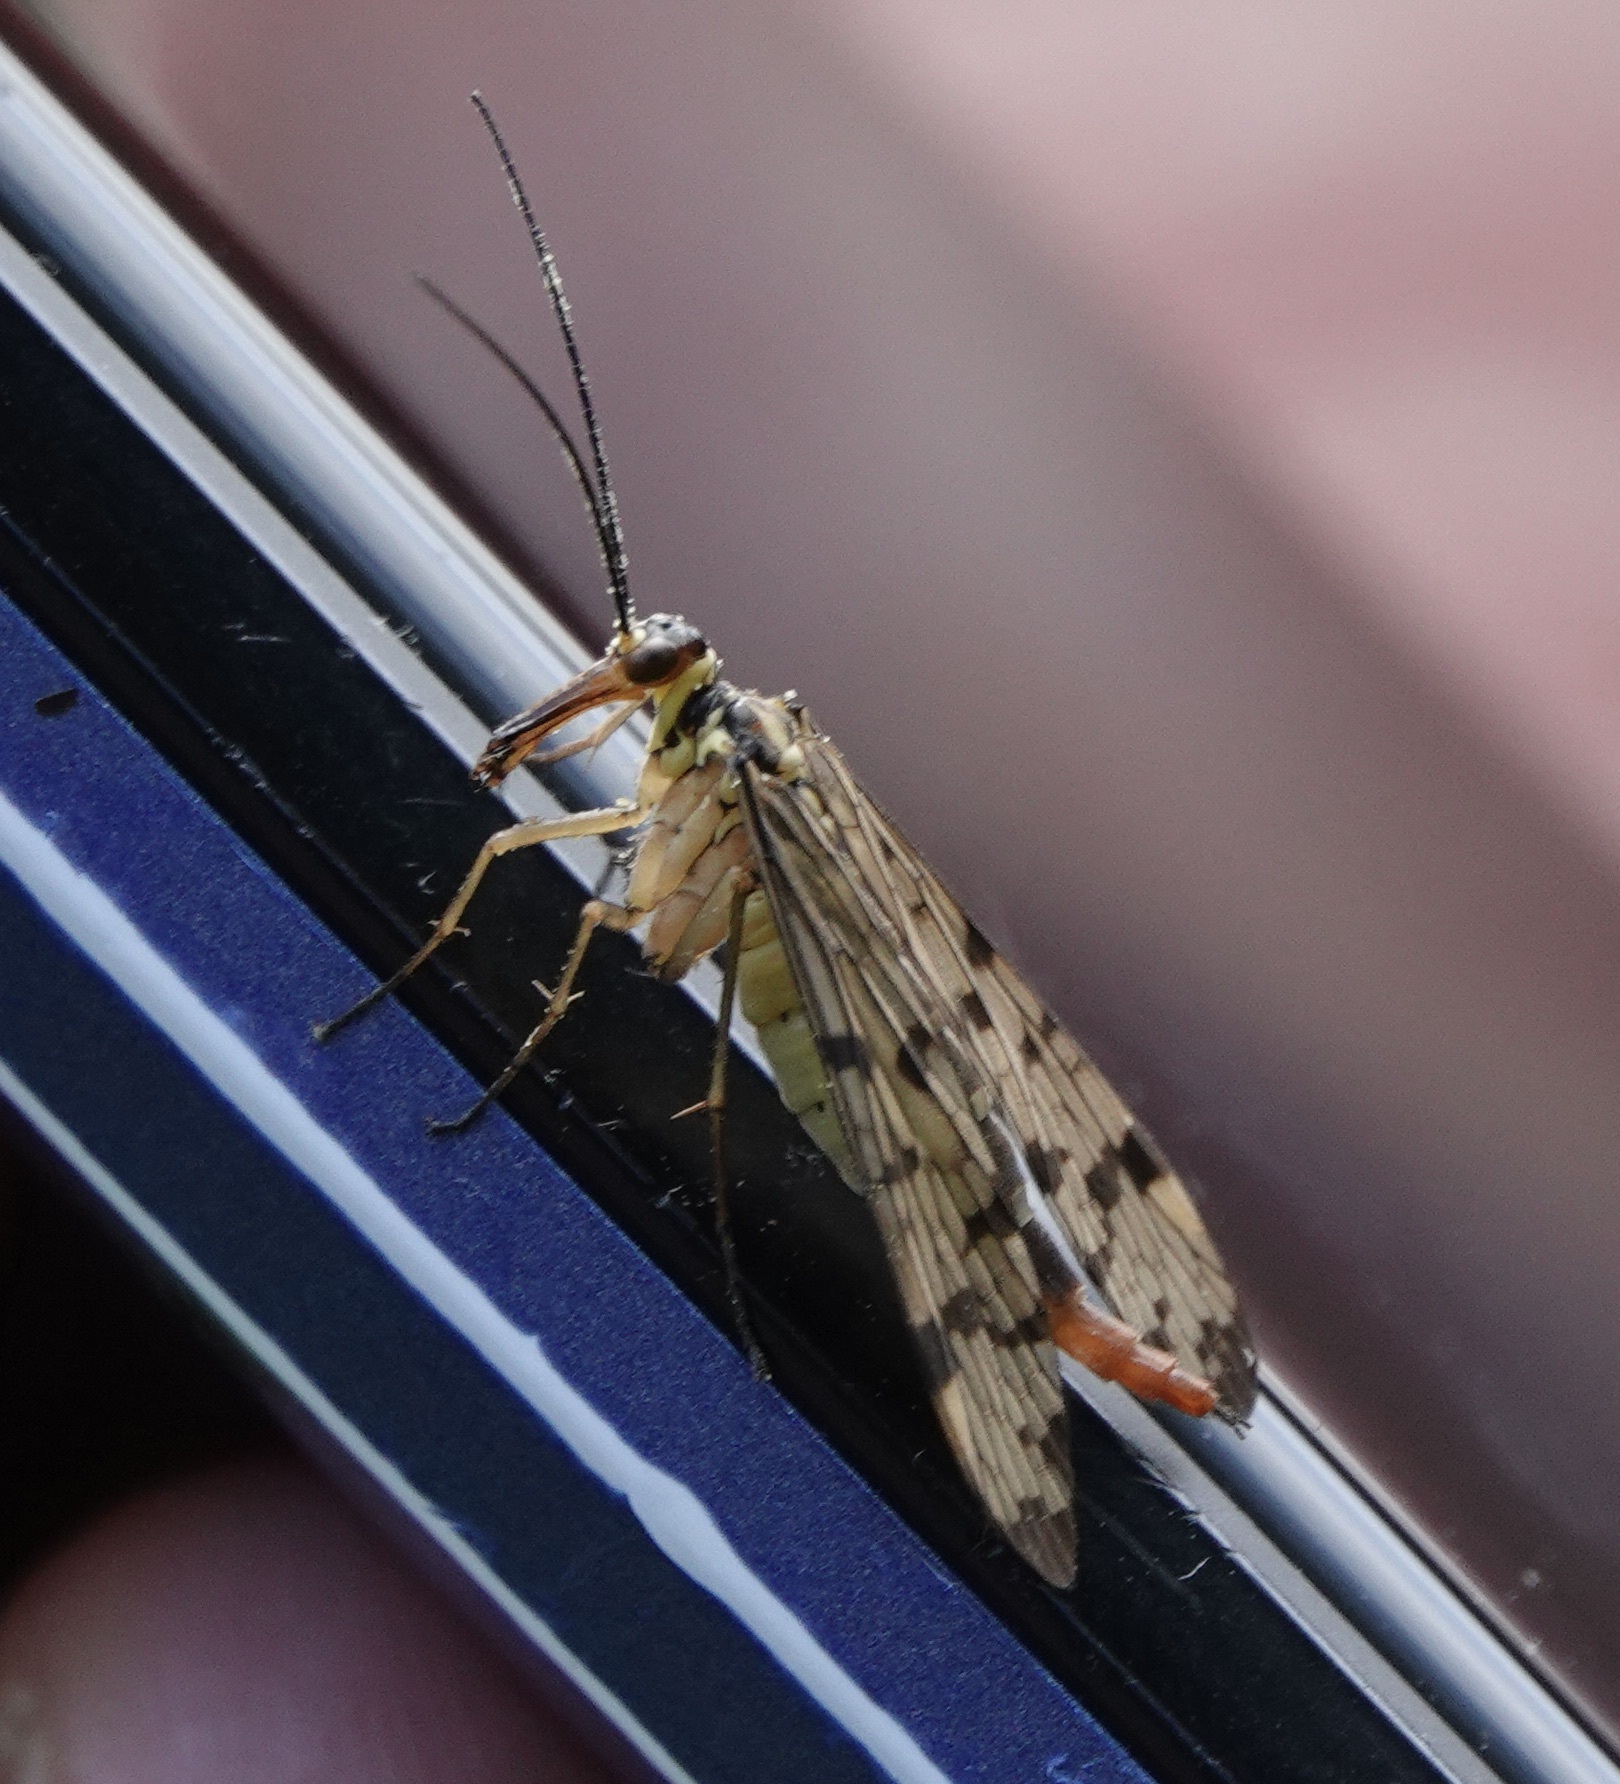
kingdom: Animalia
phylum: Arthropoda
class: Insecta
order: Mecoptera
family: Panorpidae
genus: Panorpa
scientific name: Panorpa germanica
